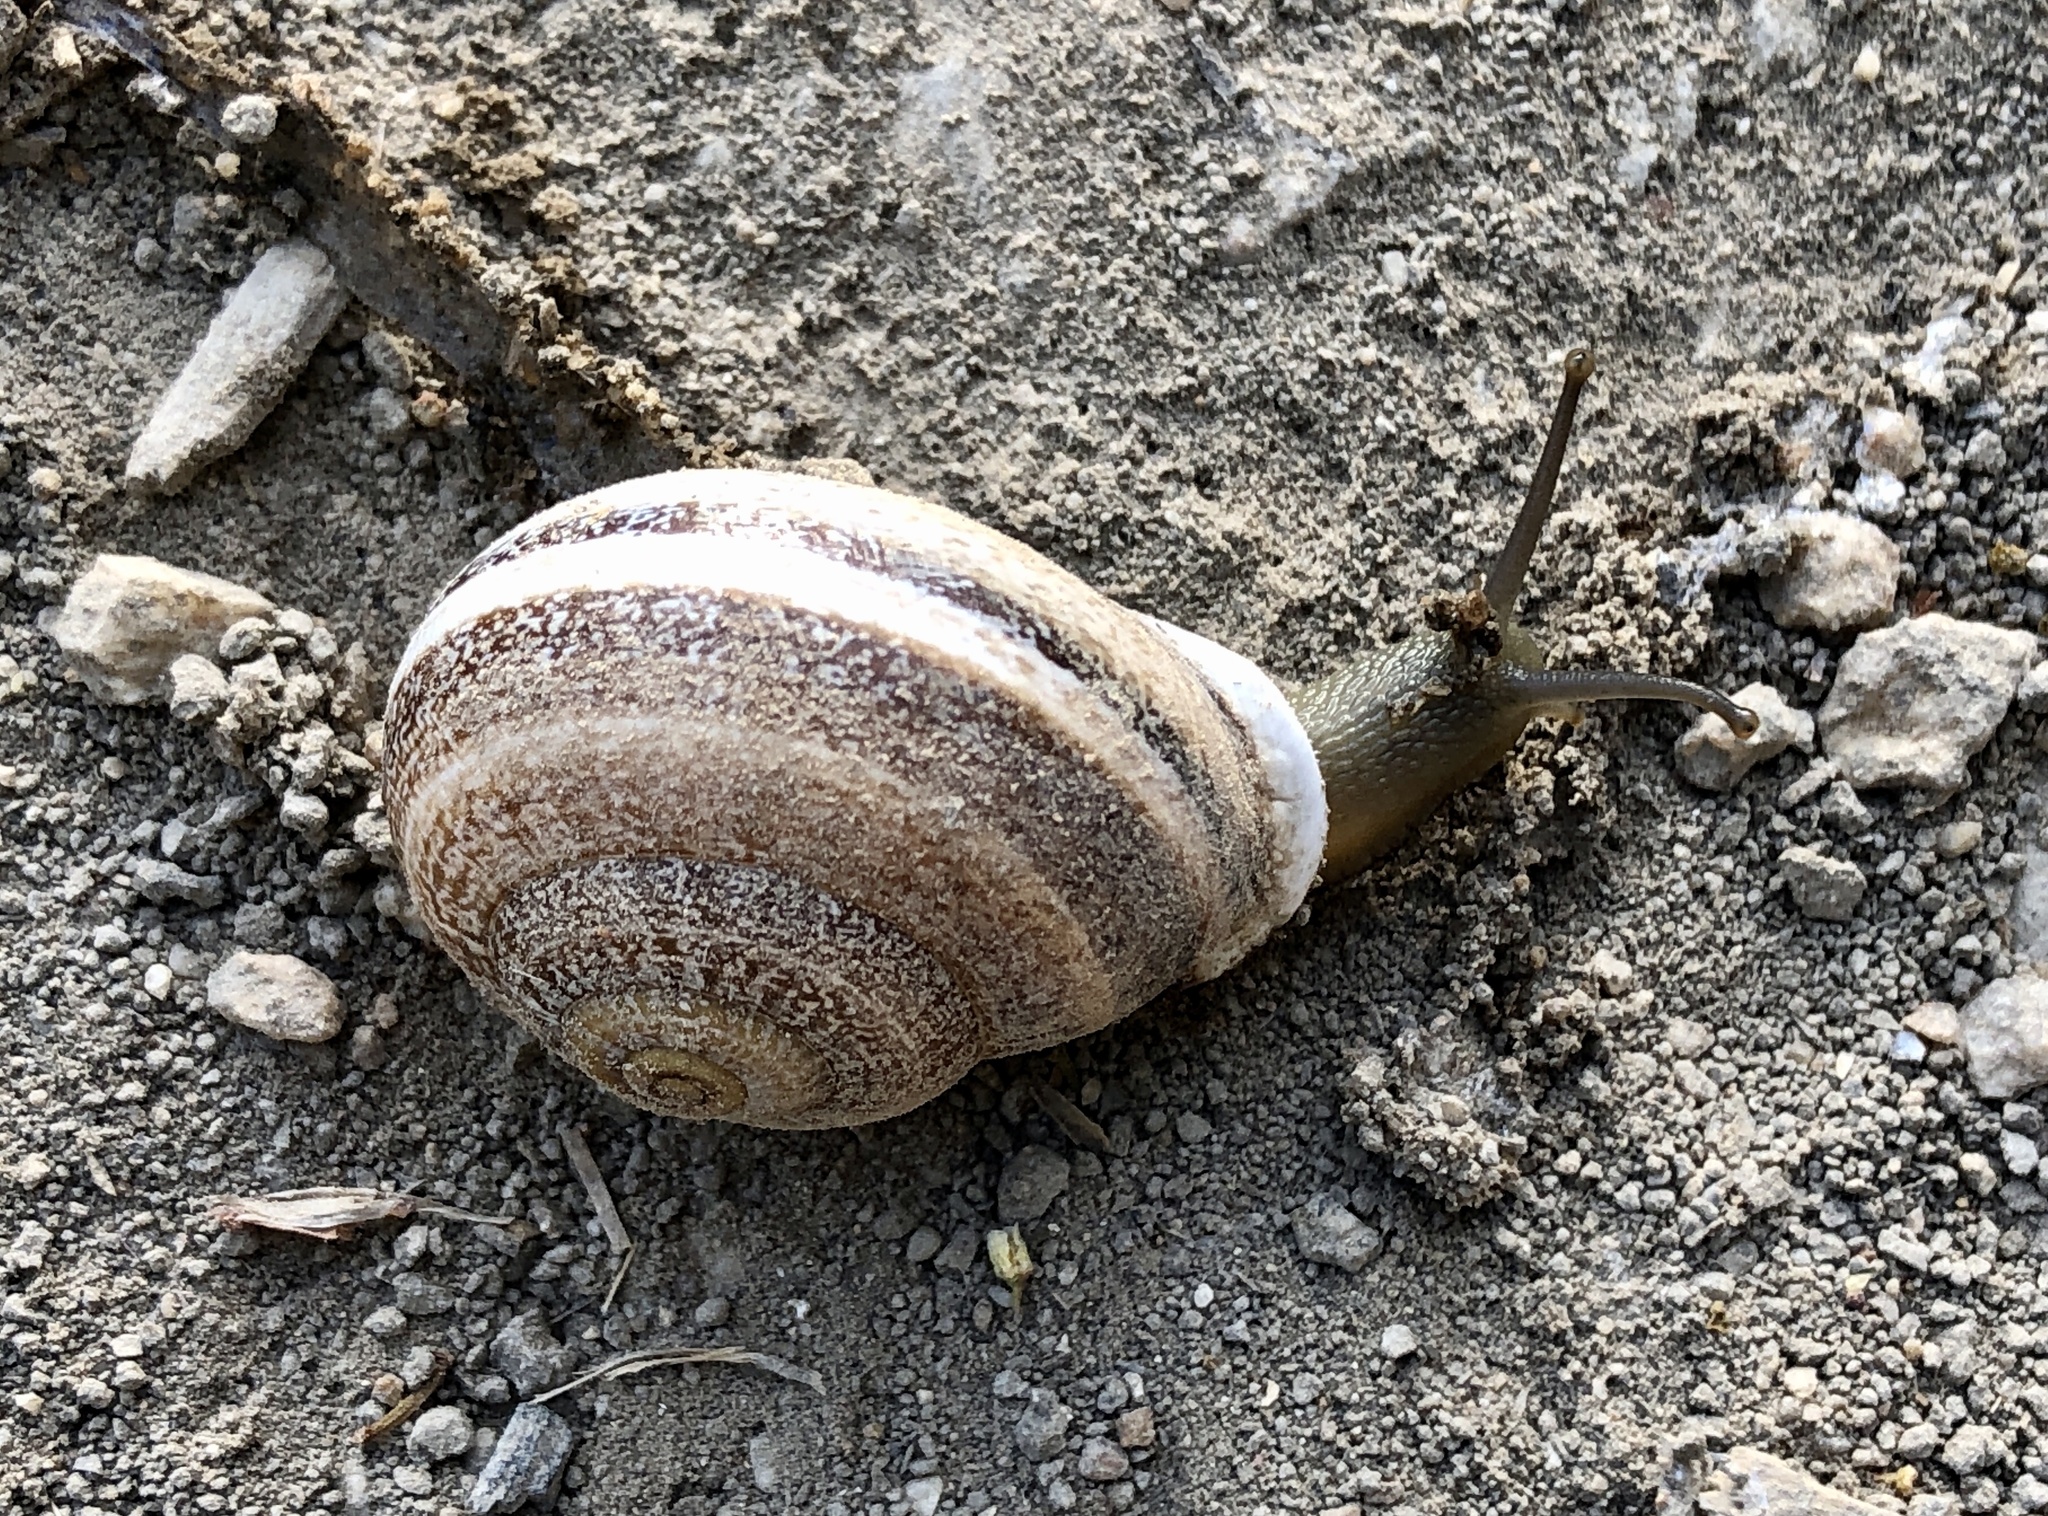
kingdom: Animalia
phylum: Mollusca
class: Gastropoda
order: Stylommatophora
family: Helicidae
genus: Otala
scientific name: Otala lactea
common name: Milk snail
